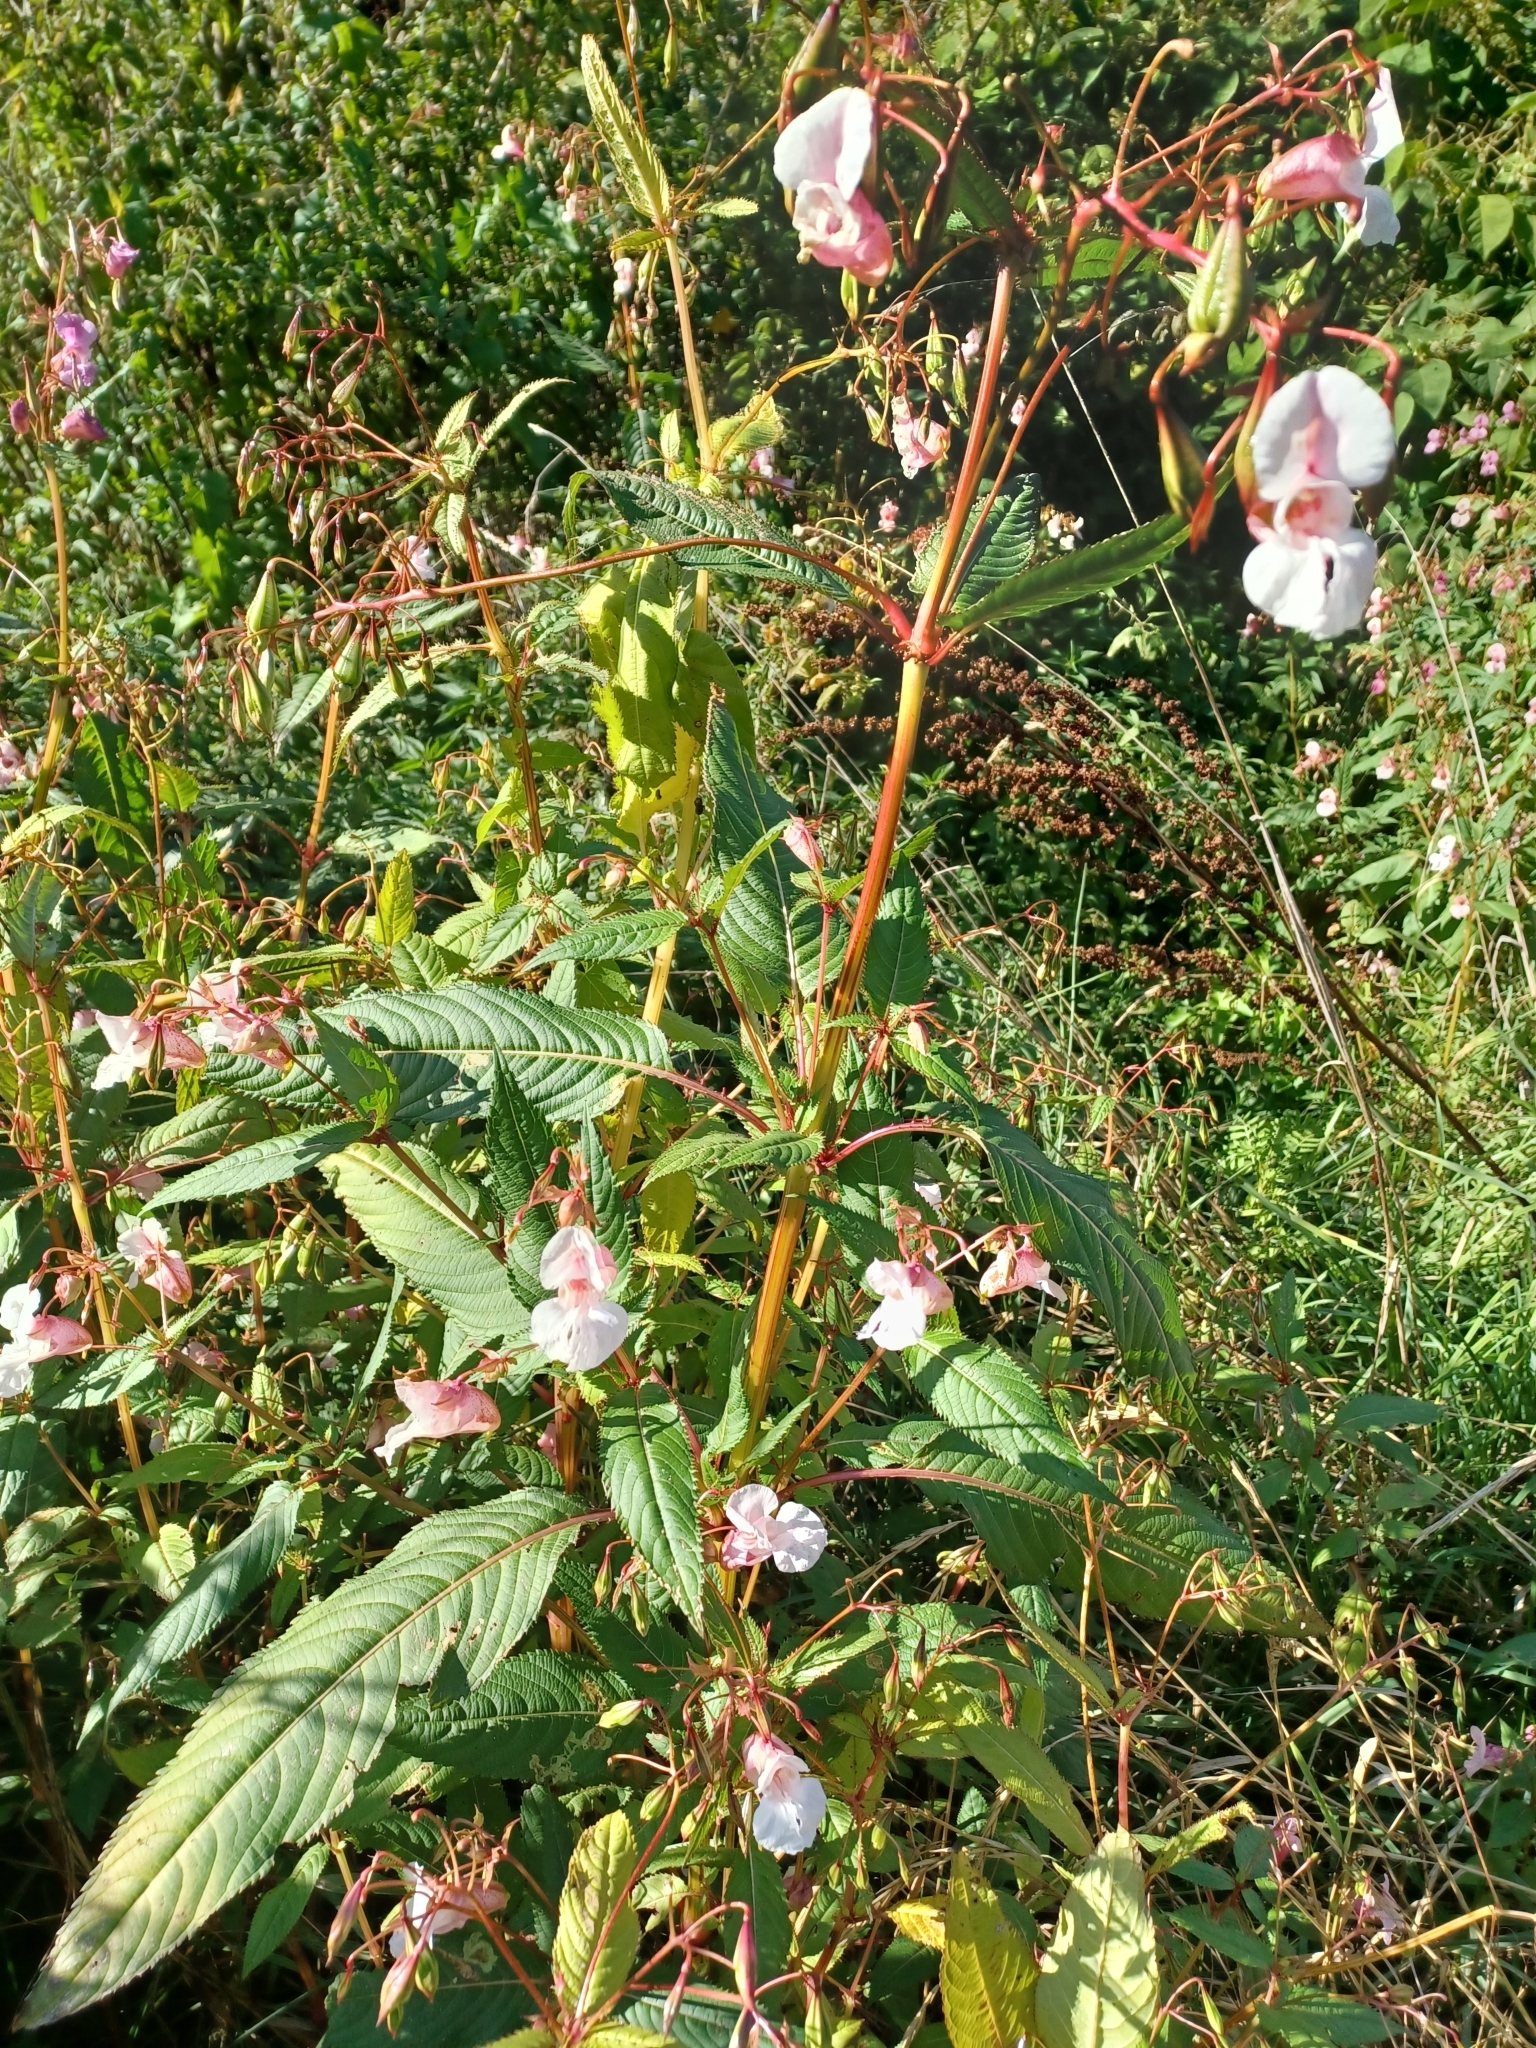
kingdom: Plantae
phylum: Tracheophyta
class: Magnoliopsida
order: Ericales
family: Balsaminaceae
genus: Impatiens
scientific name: Impatiens glandulifera
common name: Himalayan balsam
